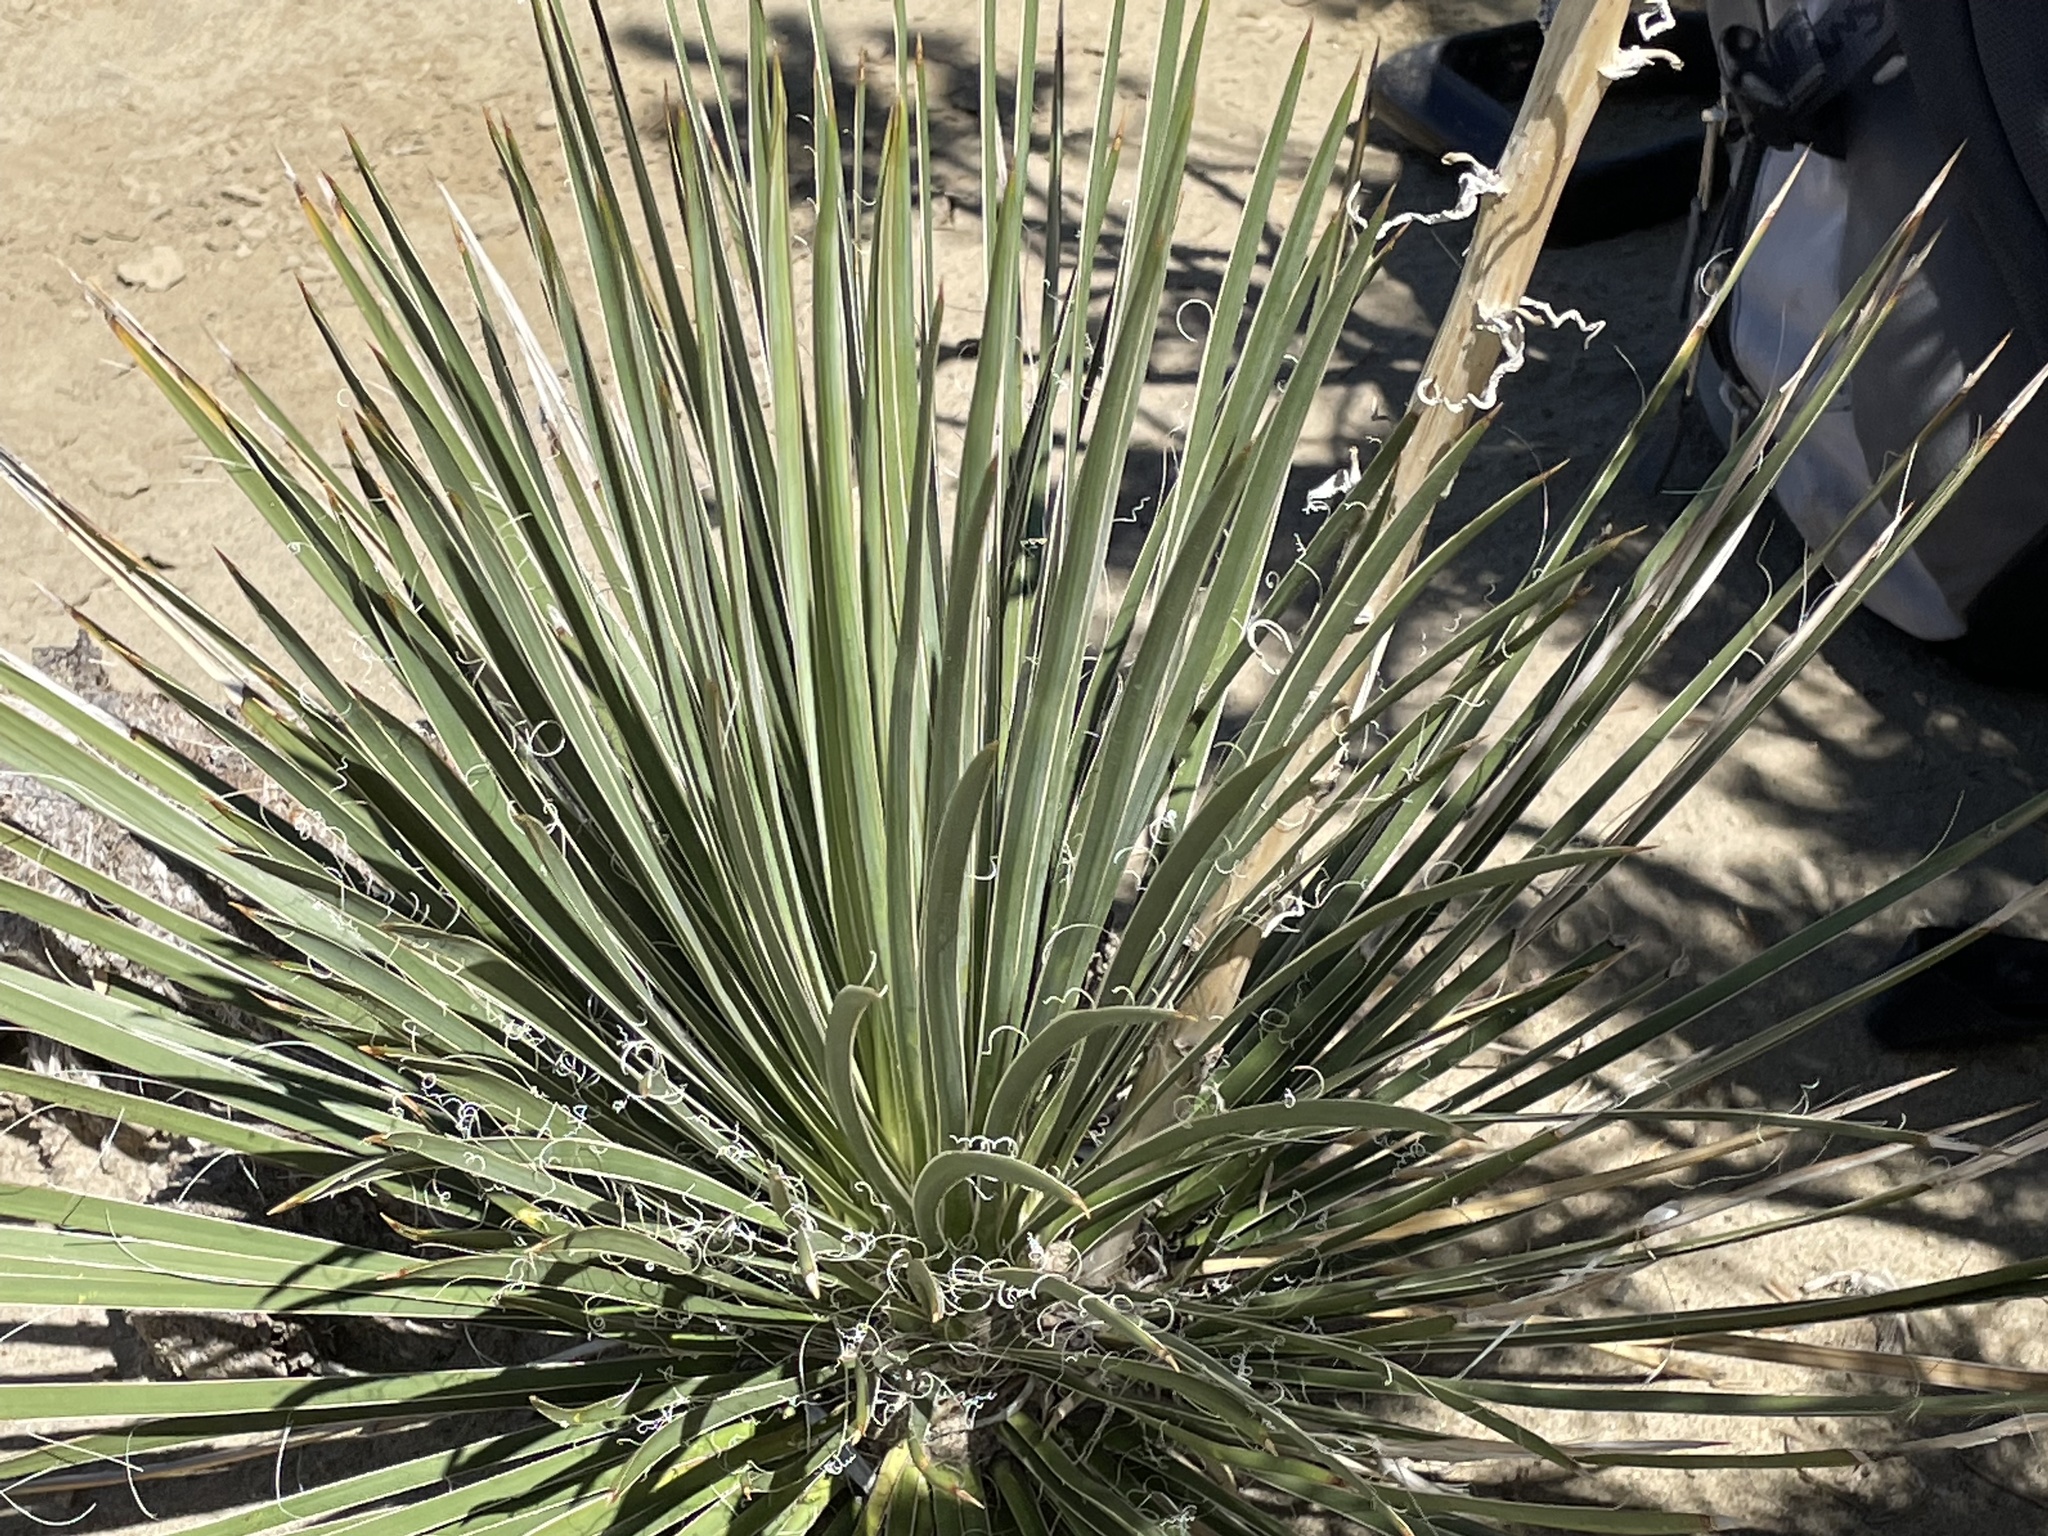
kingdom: Plantae
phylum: Tracheophyta
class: Liliopsida
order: Asparagales
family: Asparagaceae
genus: Yucca
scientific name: Yucca baileyi
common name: Alpine yucca
